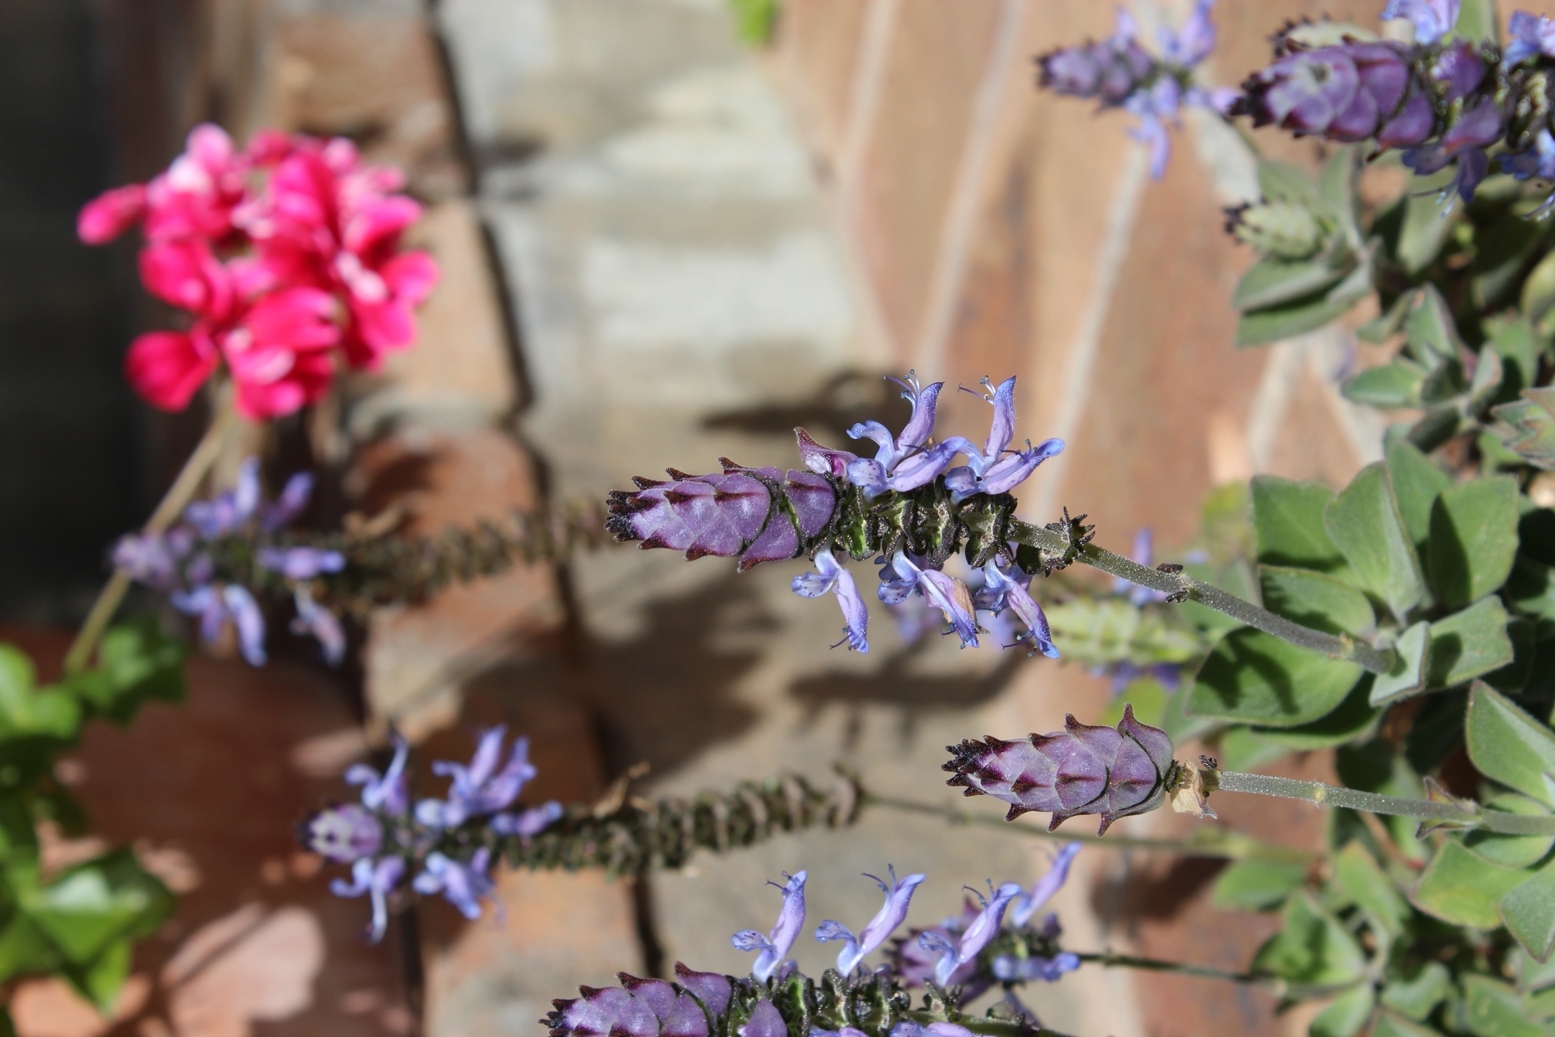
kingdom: Plantae
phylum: Tracheophyta
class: Magnoliopsida
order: Lamiales
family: Lamiaceae
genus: Coleus
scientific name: Coleus neochilus
